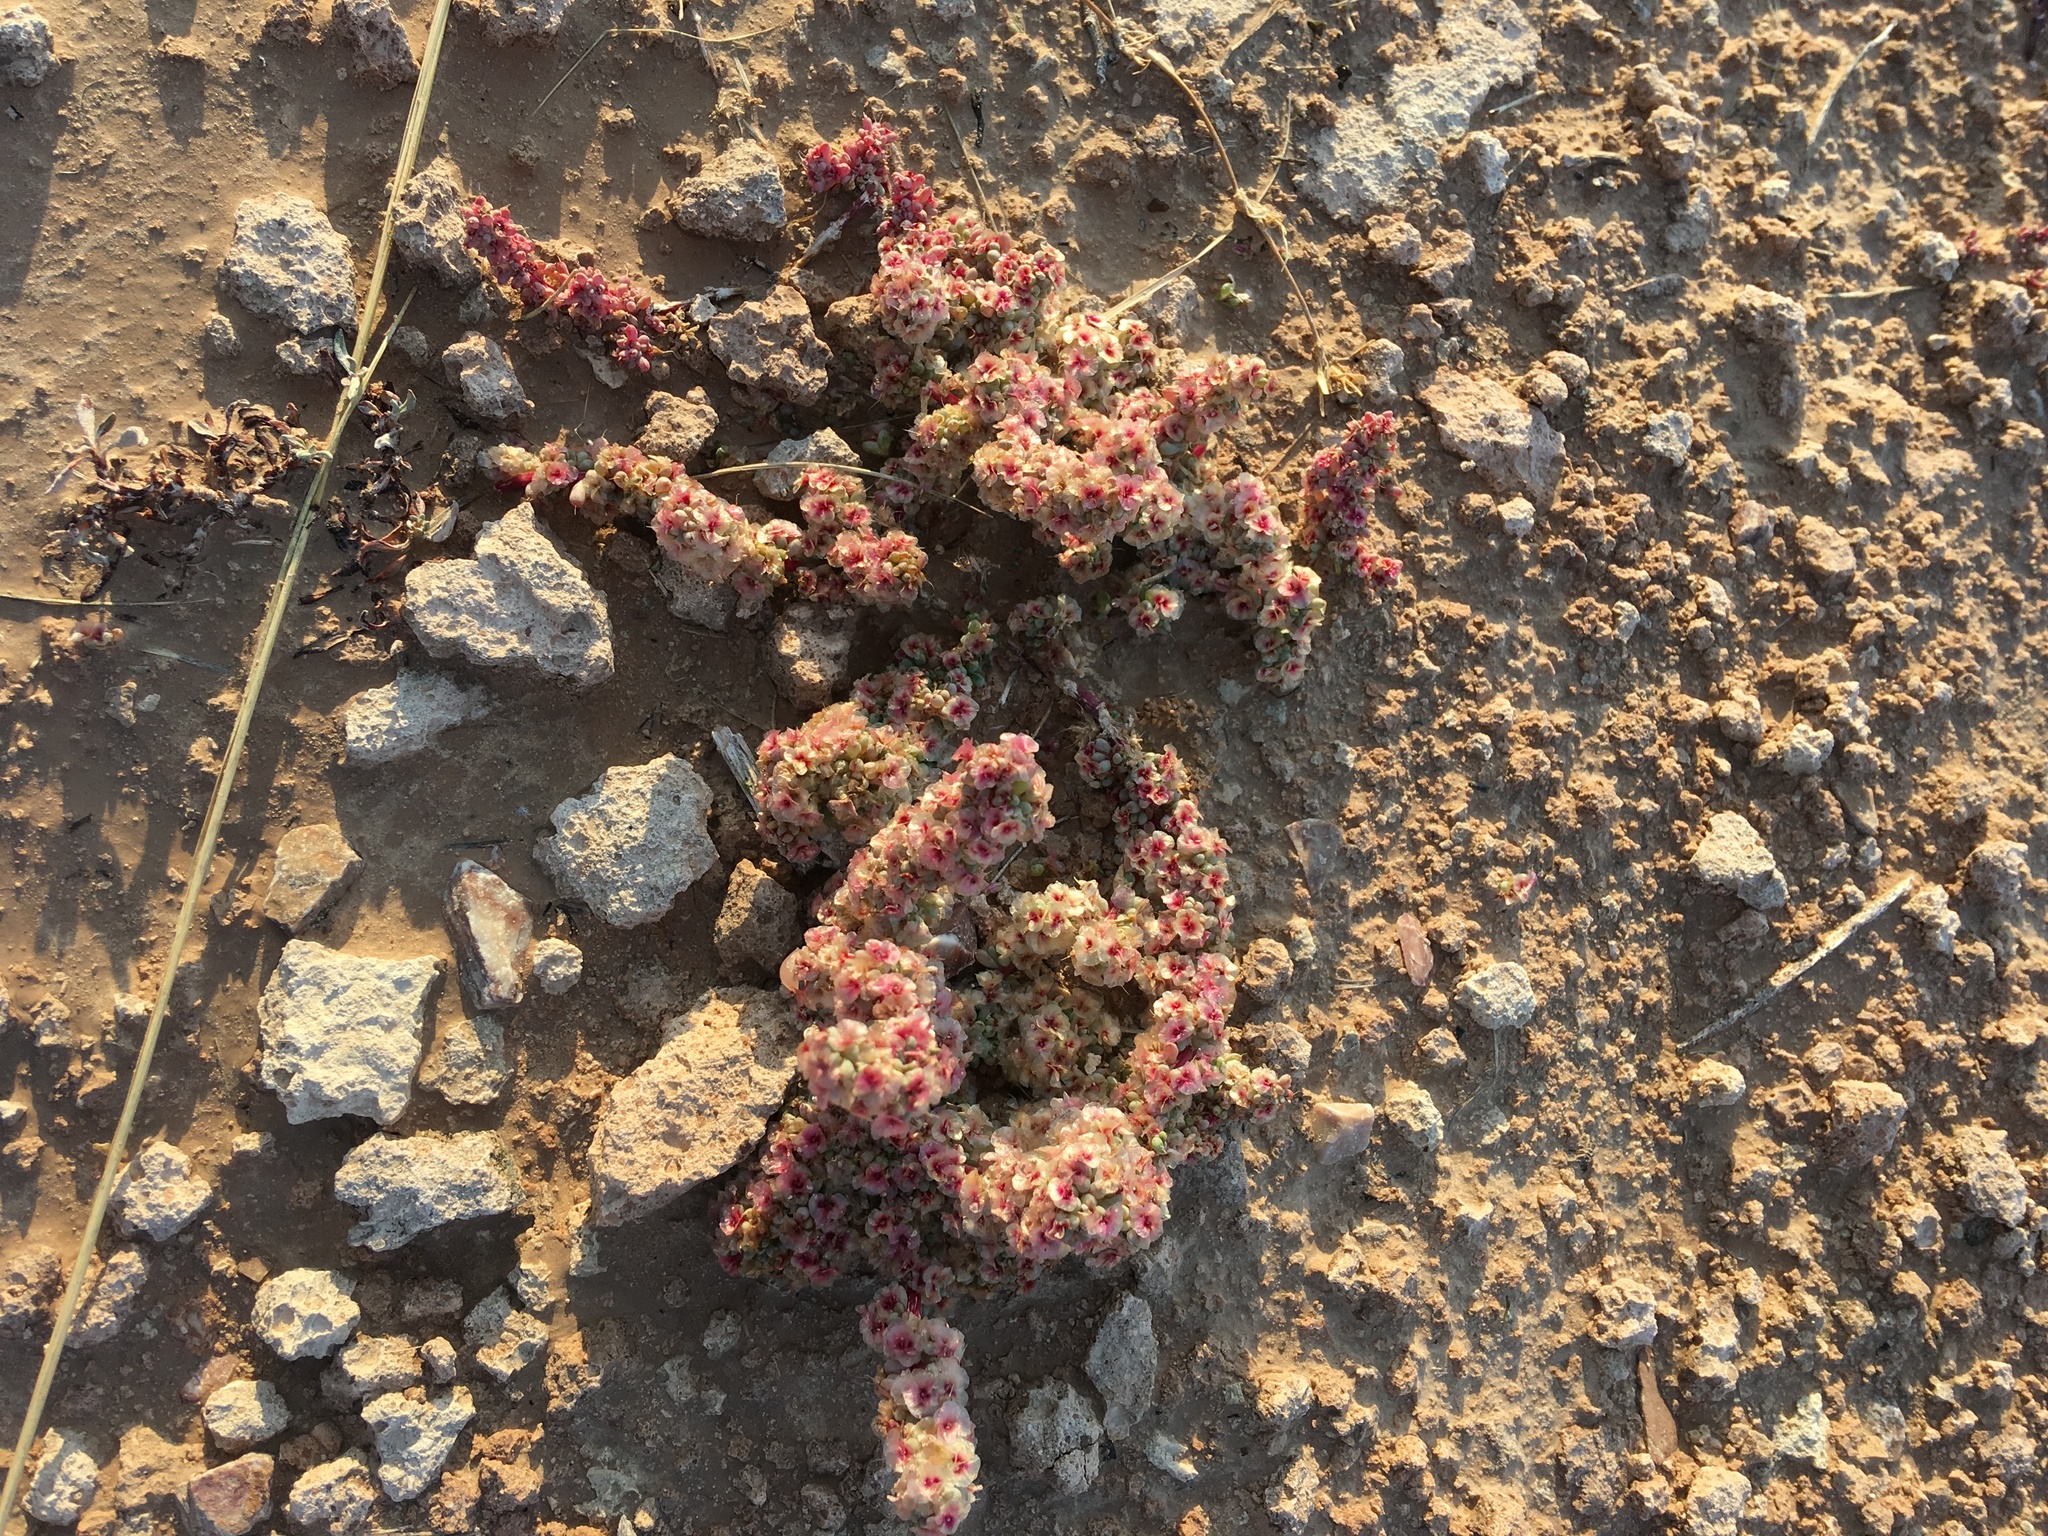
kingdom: Plantae
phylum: Tracheophyta
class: Magnoliopsida
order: Caryophyllales
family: Amaranthaceae
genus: Halogeton
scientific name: Halogeton glomeratus
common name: Saltlover
